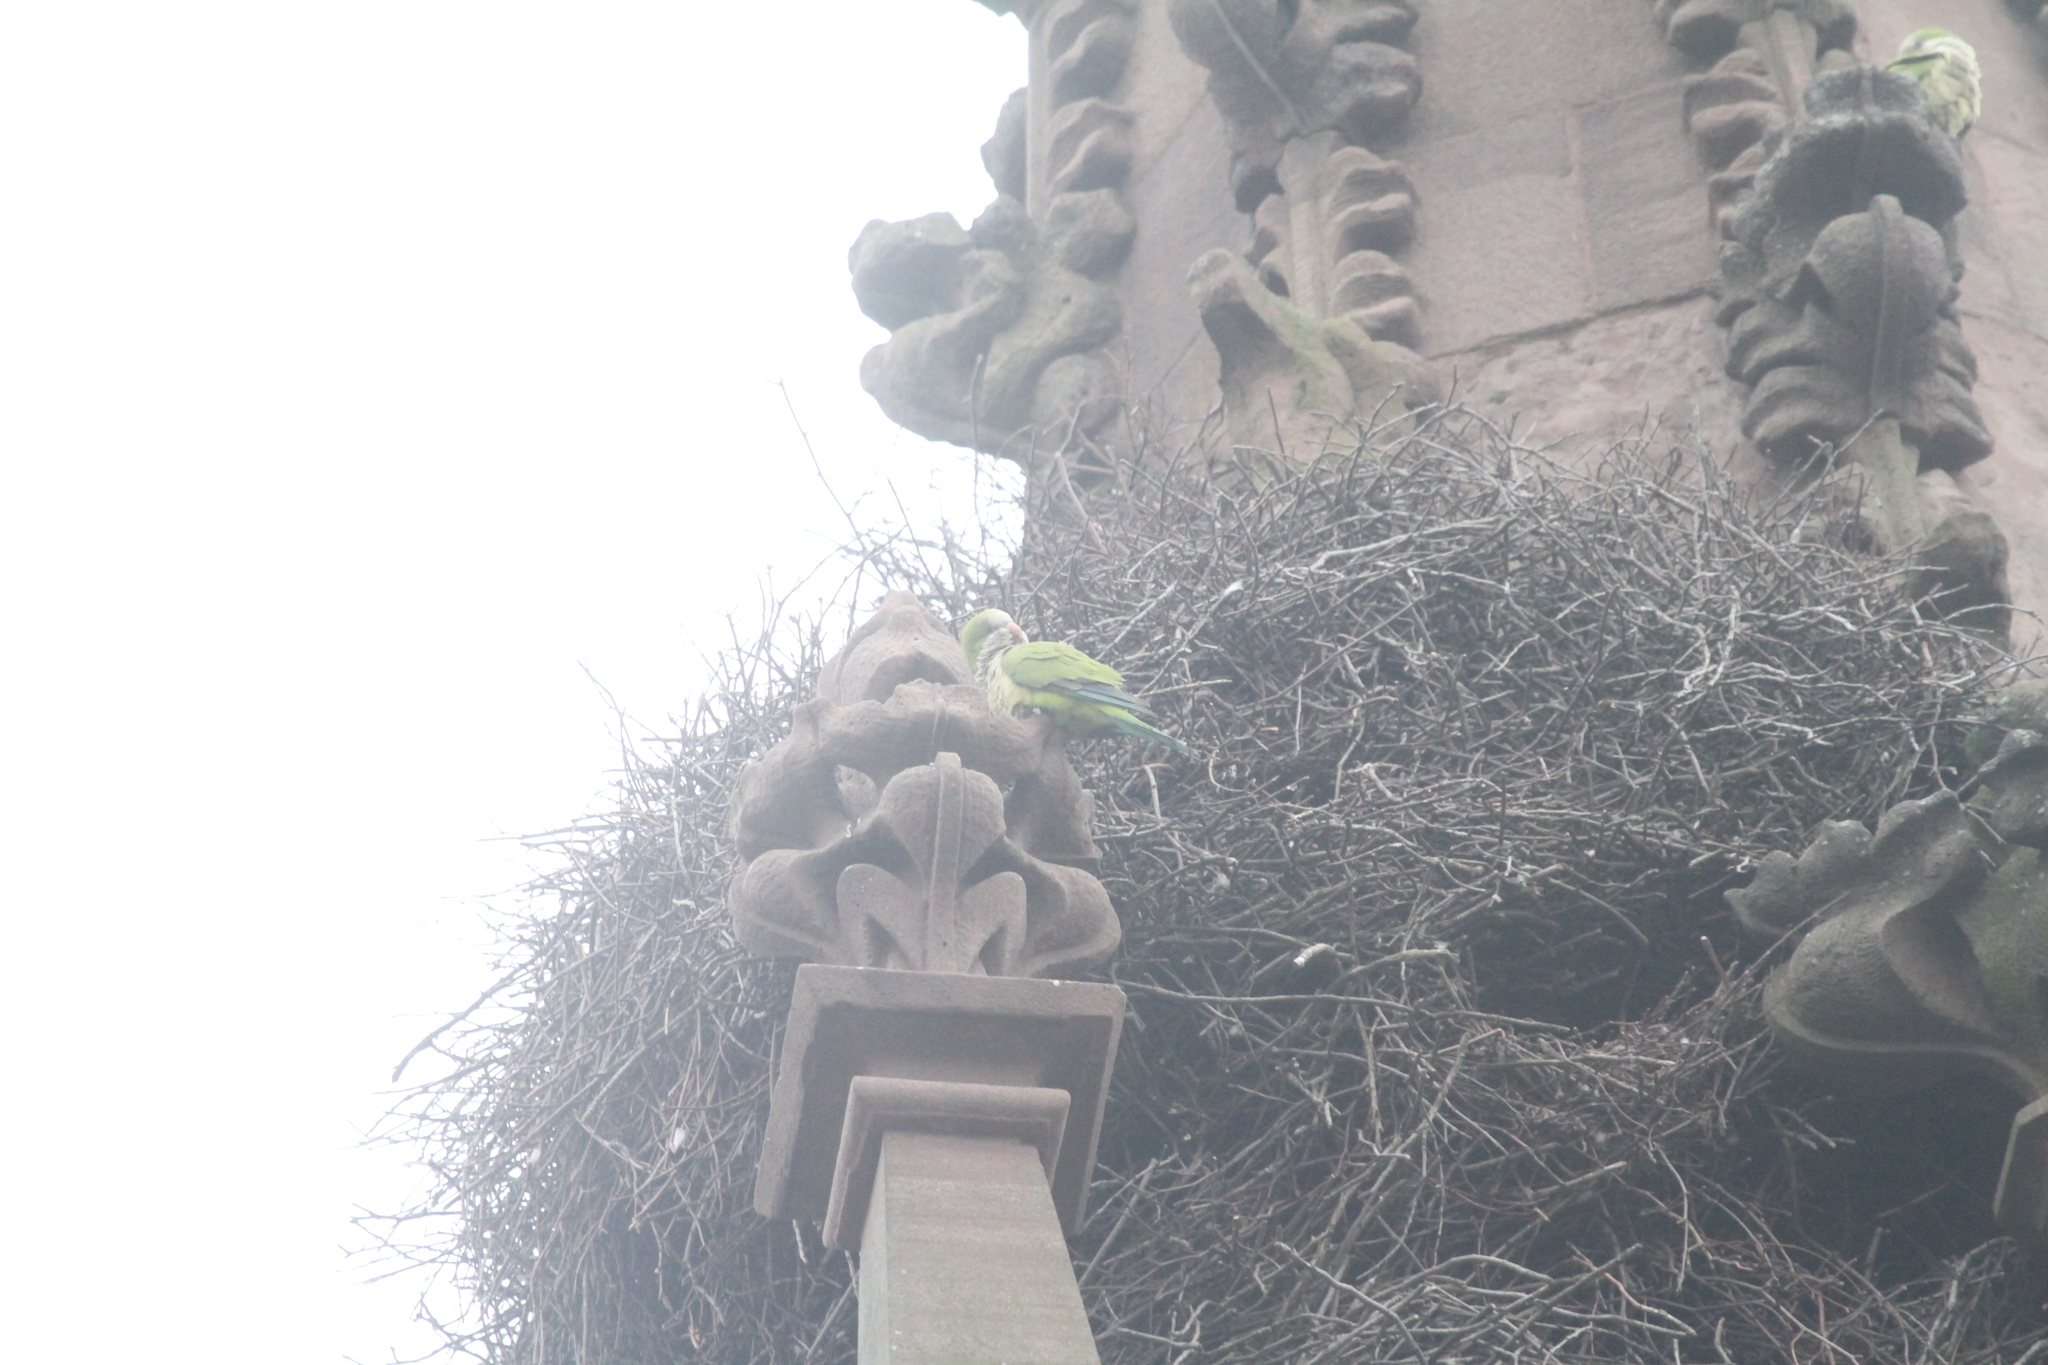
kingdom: Animalia
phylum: Chordata
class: Aves
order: Psittaciformes
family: Psittacidae
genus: Myiopsitta
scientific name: Myiopsitta monachus
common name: Monk parakeet
